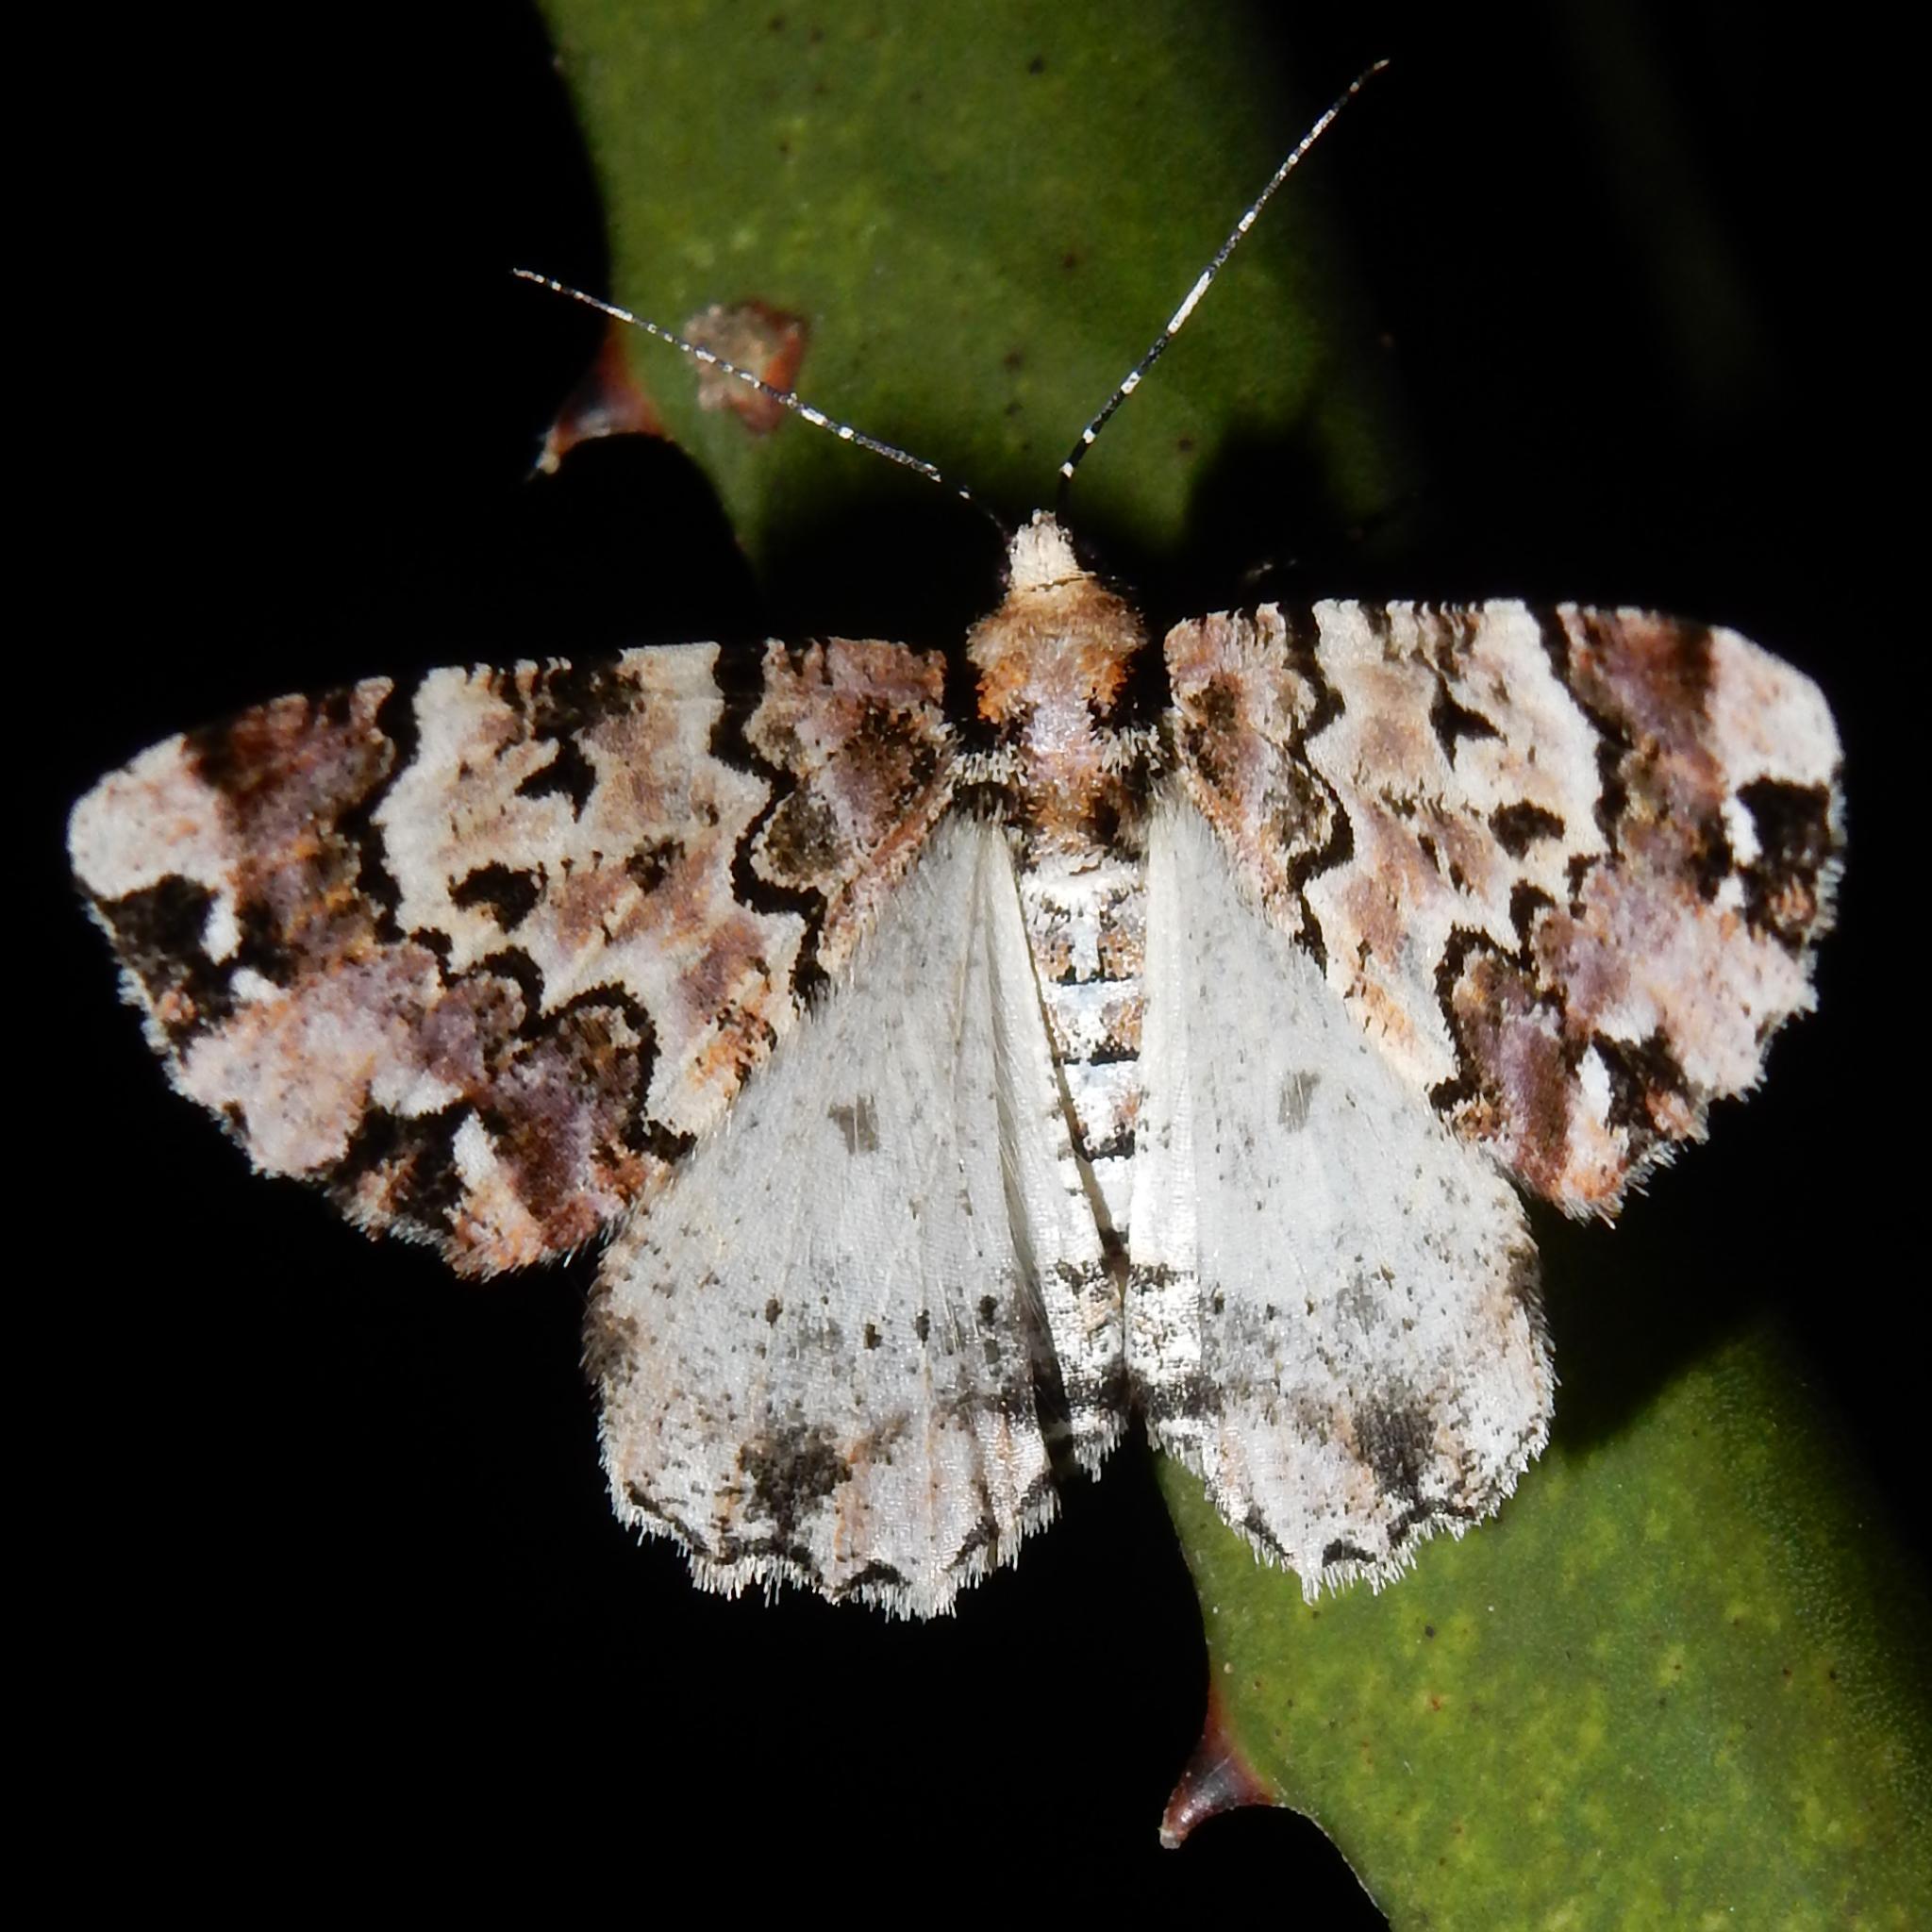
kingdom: Animalia
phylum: Arthropoda
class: Insecta
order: Lepidoptera
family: Geometridae
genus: Oedicentra
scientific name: Oedicentra albipennis
